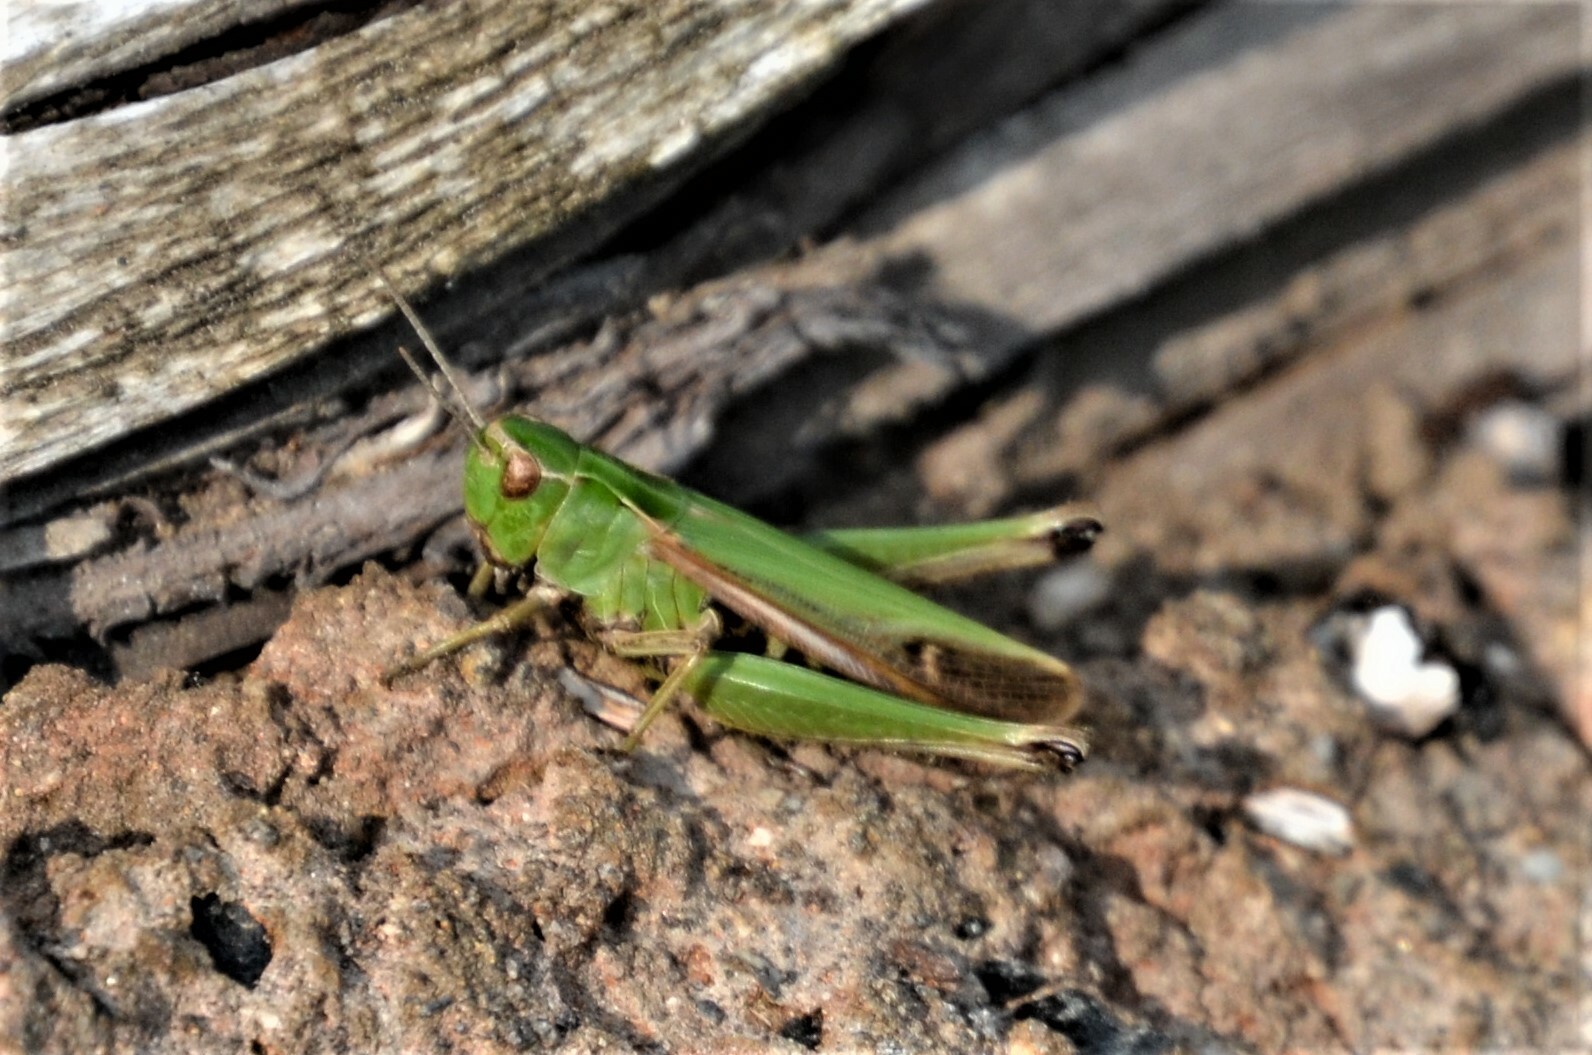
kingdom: Animalia
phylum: Arthropoda
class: Insecta
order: Orthoptera
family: Acrididae
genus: Omocestus
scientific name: Omocestus viridulus
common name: Common green grasshopper
